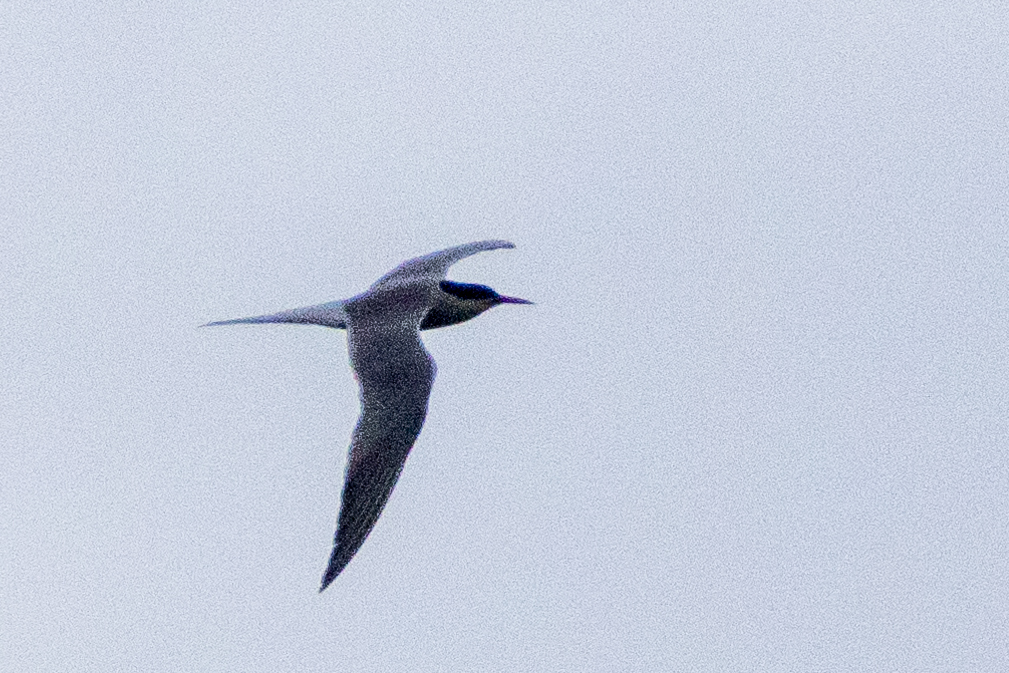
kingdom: Animalia
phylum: Chordata
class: Aves
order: Charadriiformes
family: Laridae
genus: Sterna
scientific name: Sterna hirundo
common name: Common tern
